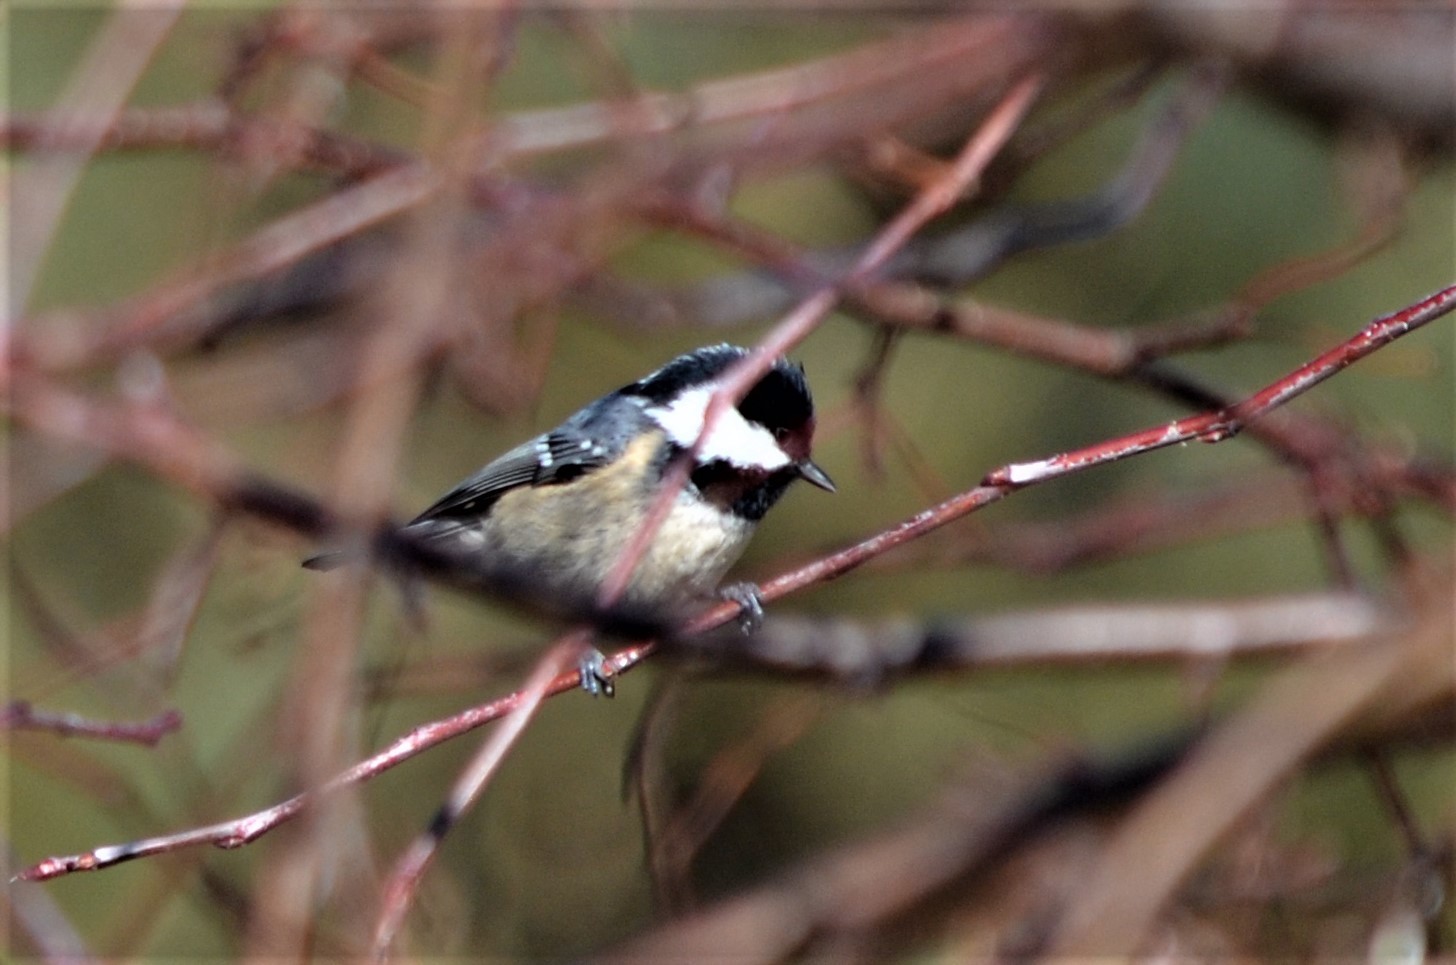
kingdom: Animalia
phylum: Chordata
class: Aves
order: Passeriformes
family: Paridae
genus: Periparus
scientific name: Periparus ater
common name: Coal tit
